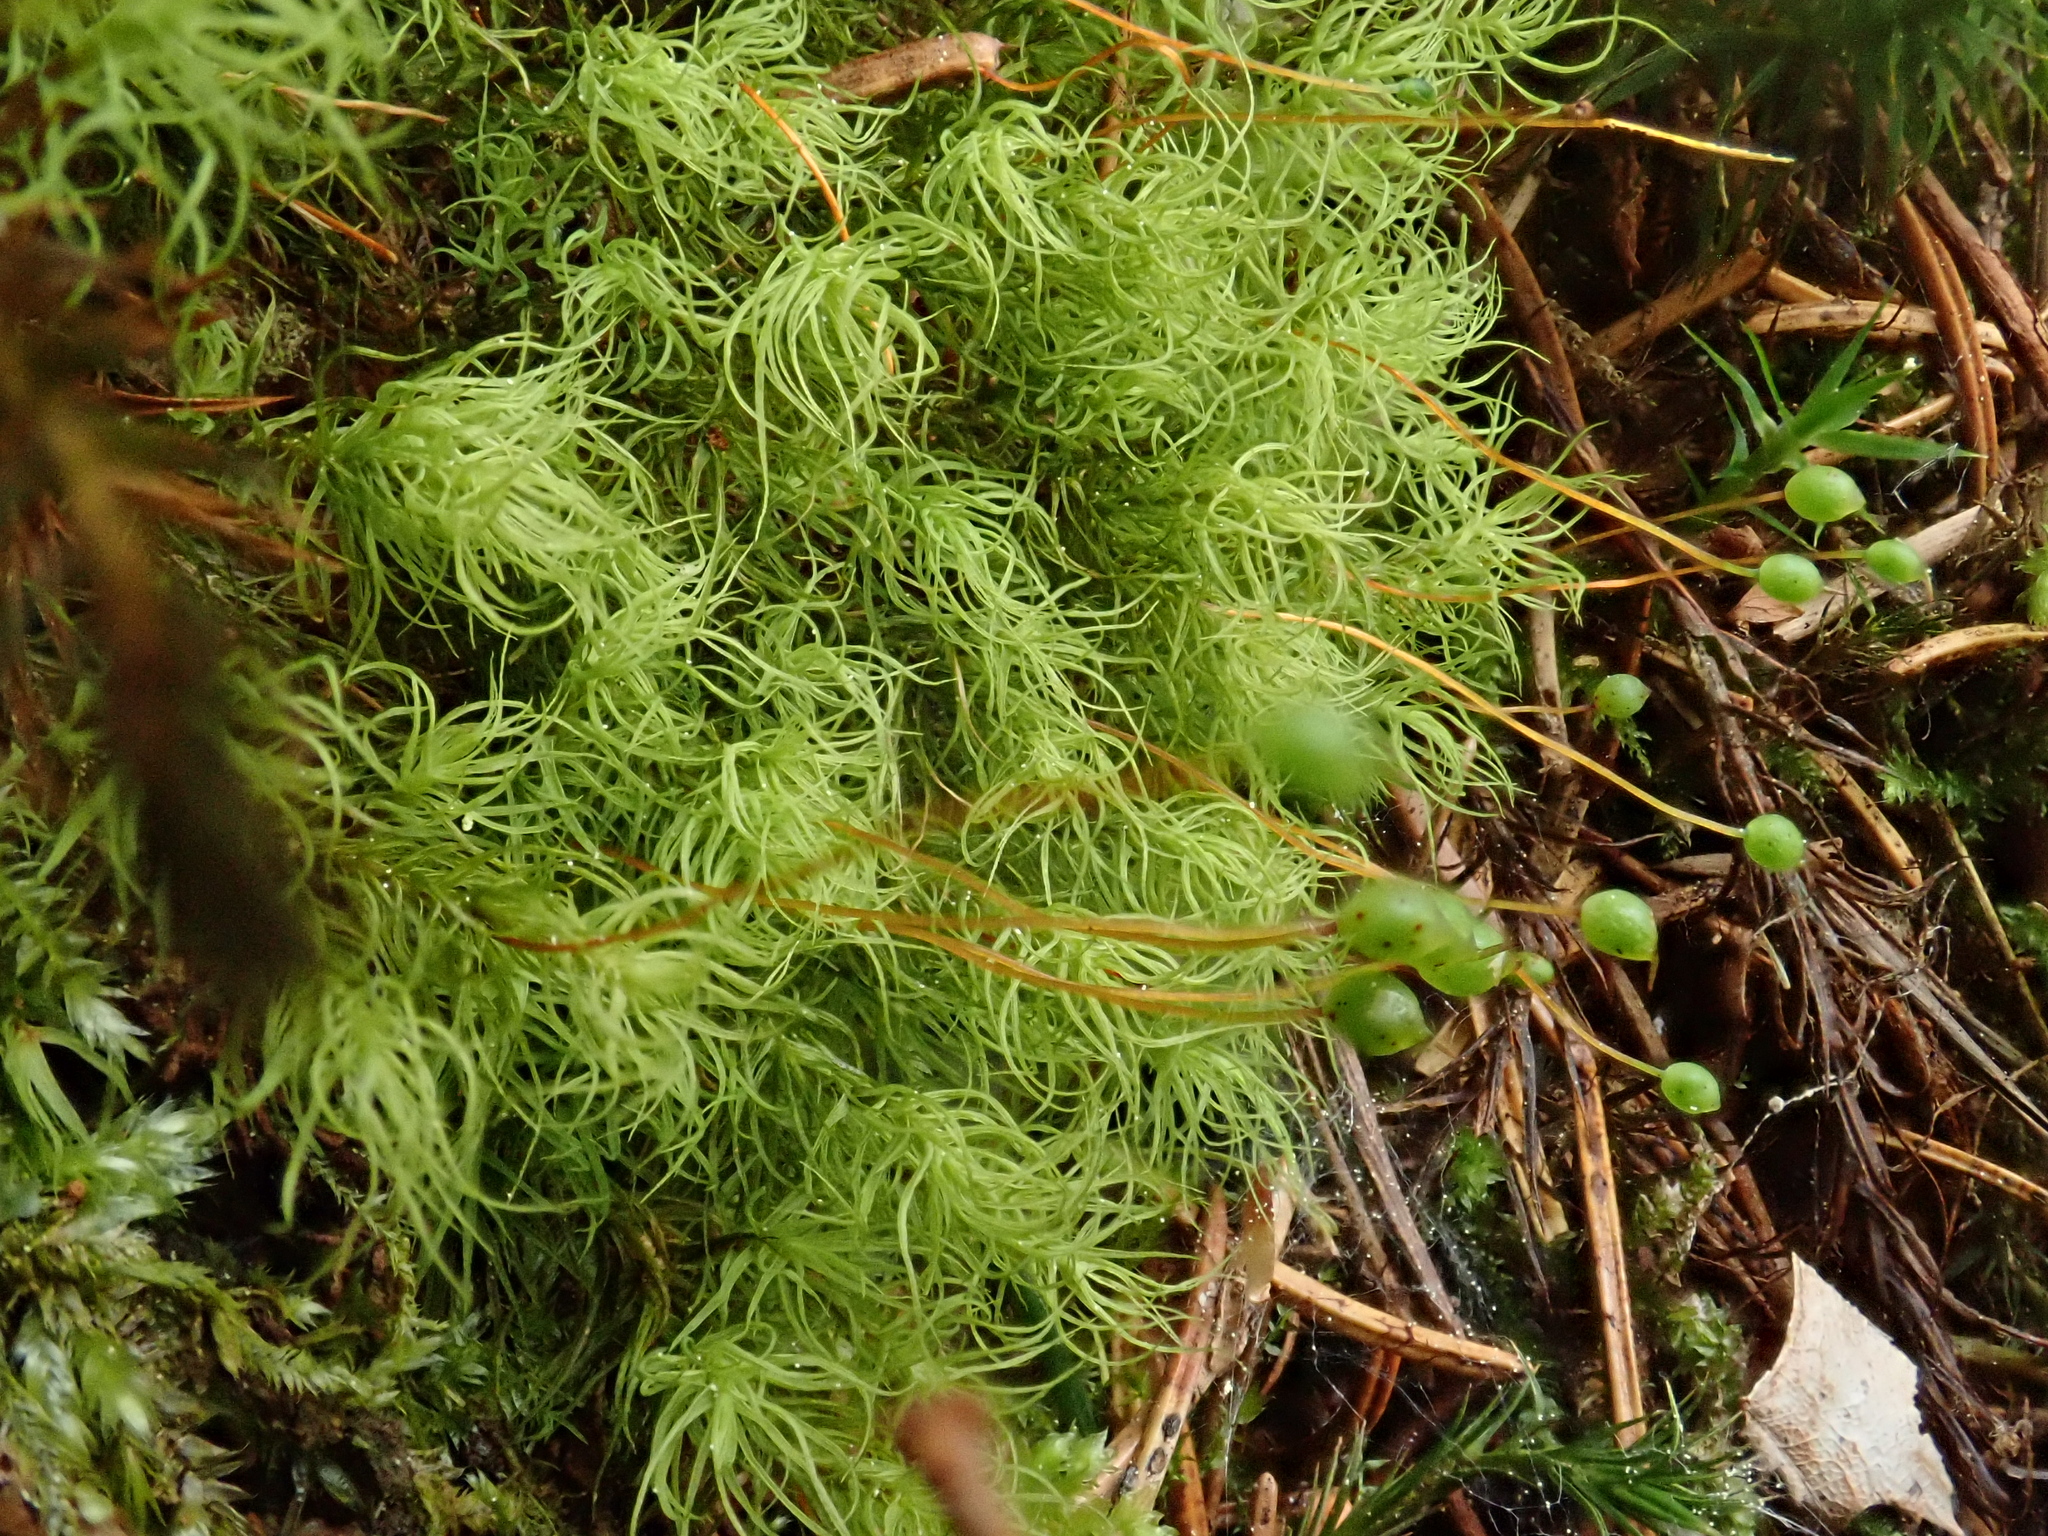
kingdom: Plantae
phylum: Bryophyta
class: Bryopsida
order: Bartramiales
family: Bartramiaceae
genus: Bartramia
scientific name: Bartramia ithyphylla
